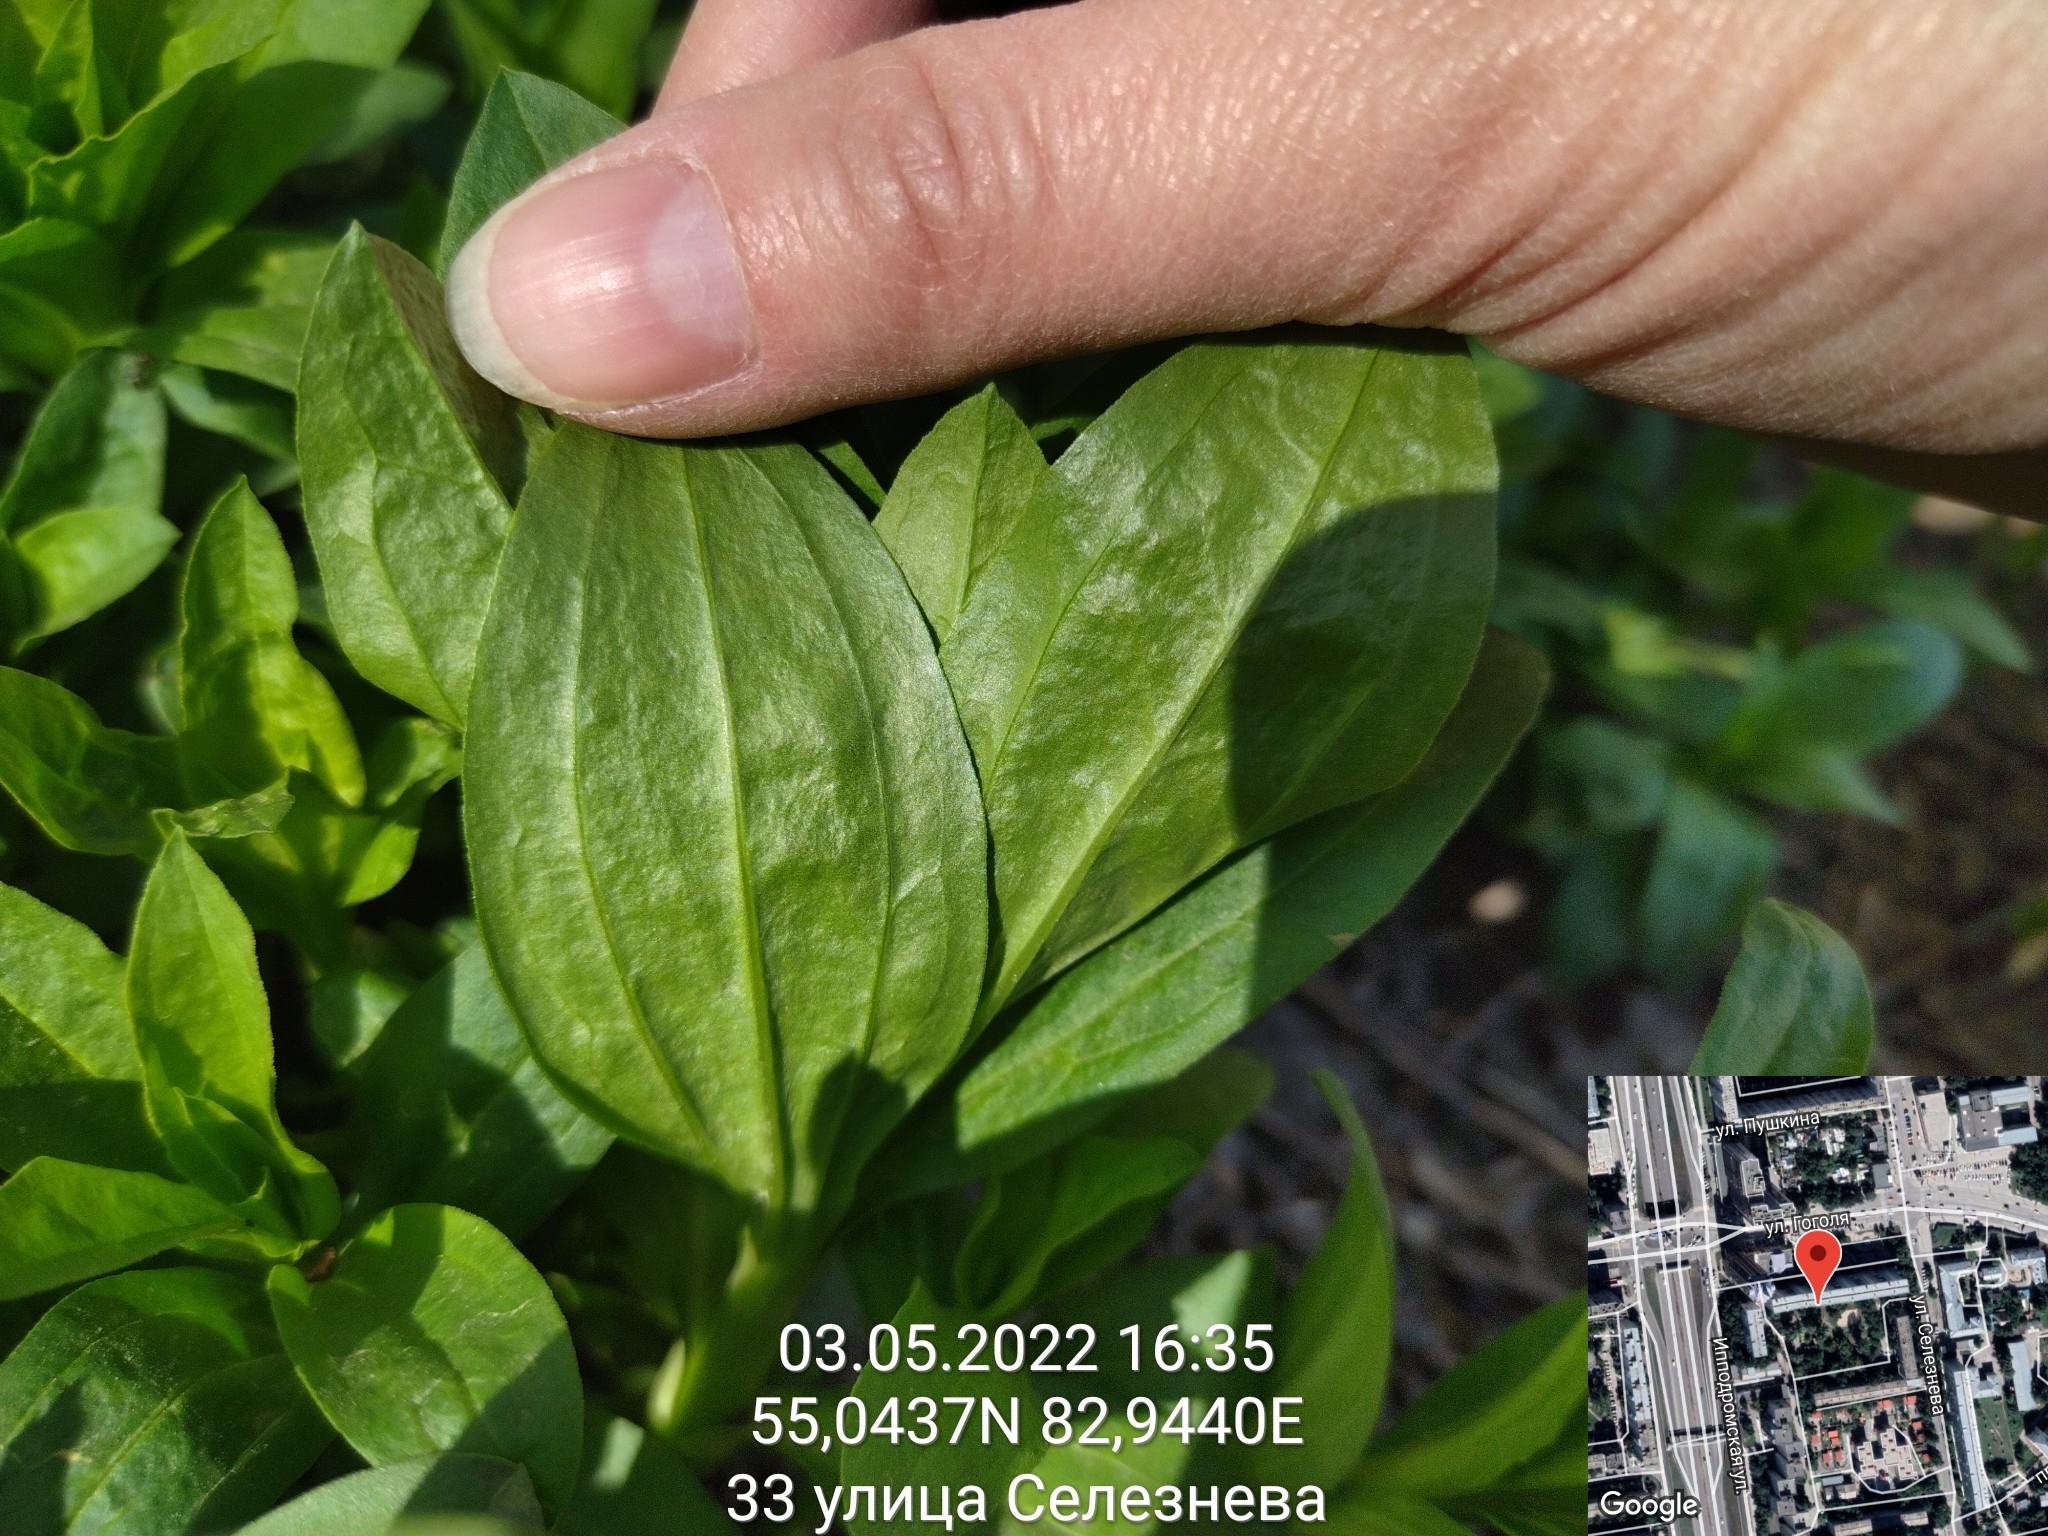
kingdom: Plantae
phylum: Tracheophyta
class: Magnoliopsida
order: Caryophyllales
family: Caryophyllaceae
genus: Saponaria
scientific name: Saponaria officinalis
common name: Soapwort
